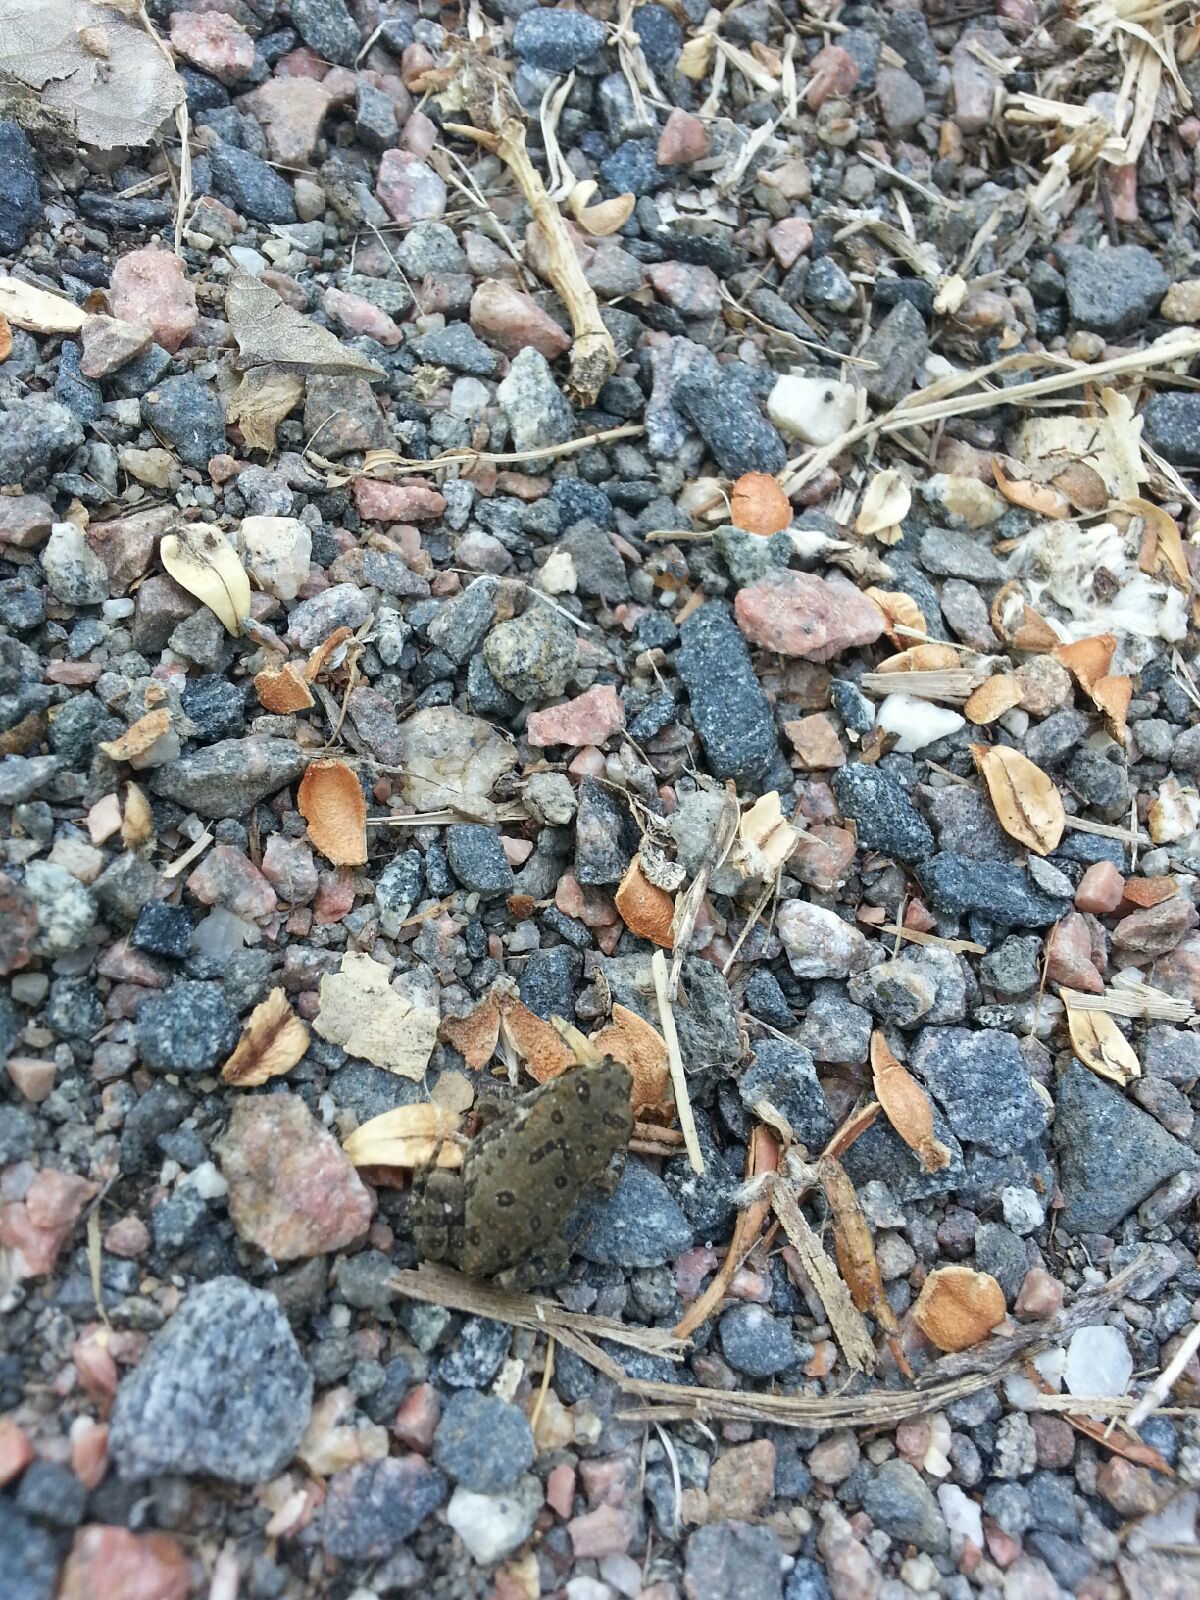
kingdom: Animalia
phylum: Chordata
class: Amphibia
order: Anura
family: Bufonidae
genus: Anaxyrus
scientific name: Anaxyrus woodhousii
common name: Woodhouse's toad
